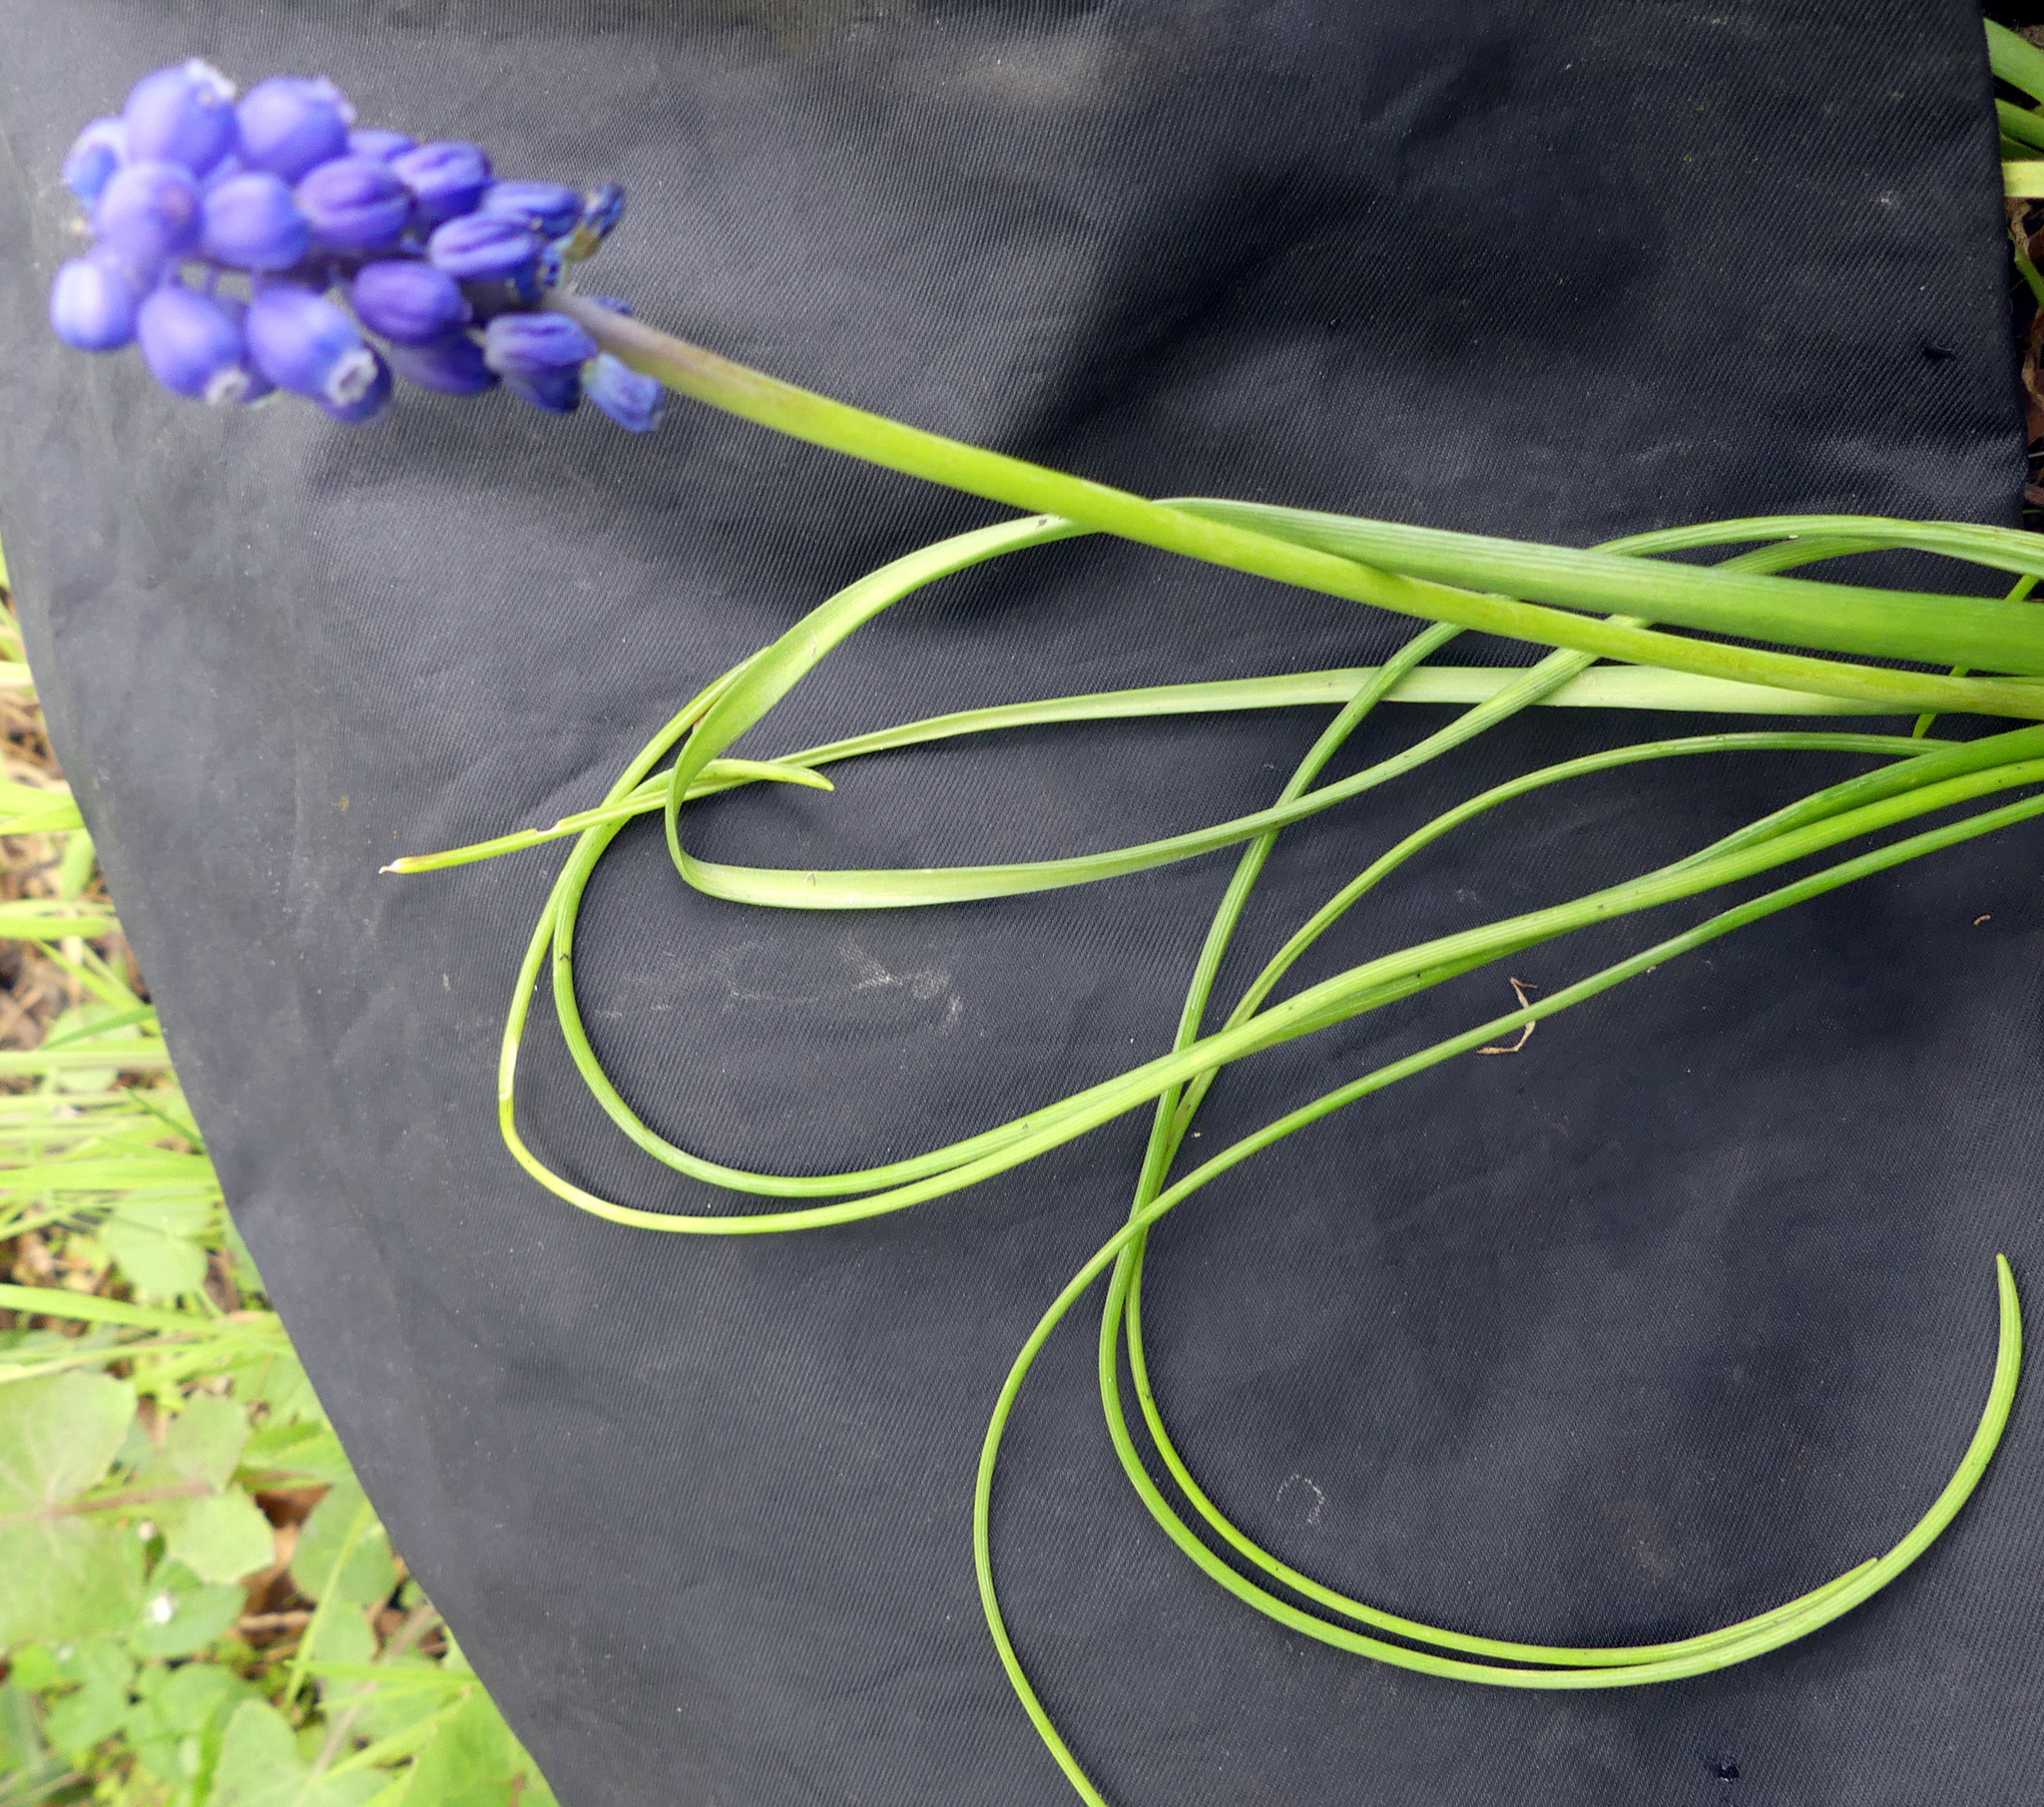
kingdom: Plantae
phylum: Tracheophyta
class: Liliopsida
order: Asparagales
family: Asparagaceae
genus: Muscari
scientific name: Muscari armeniacum
